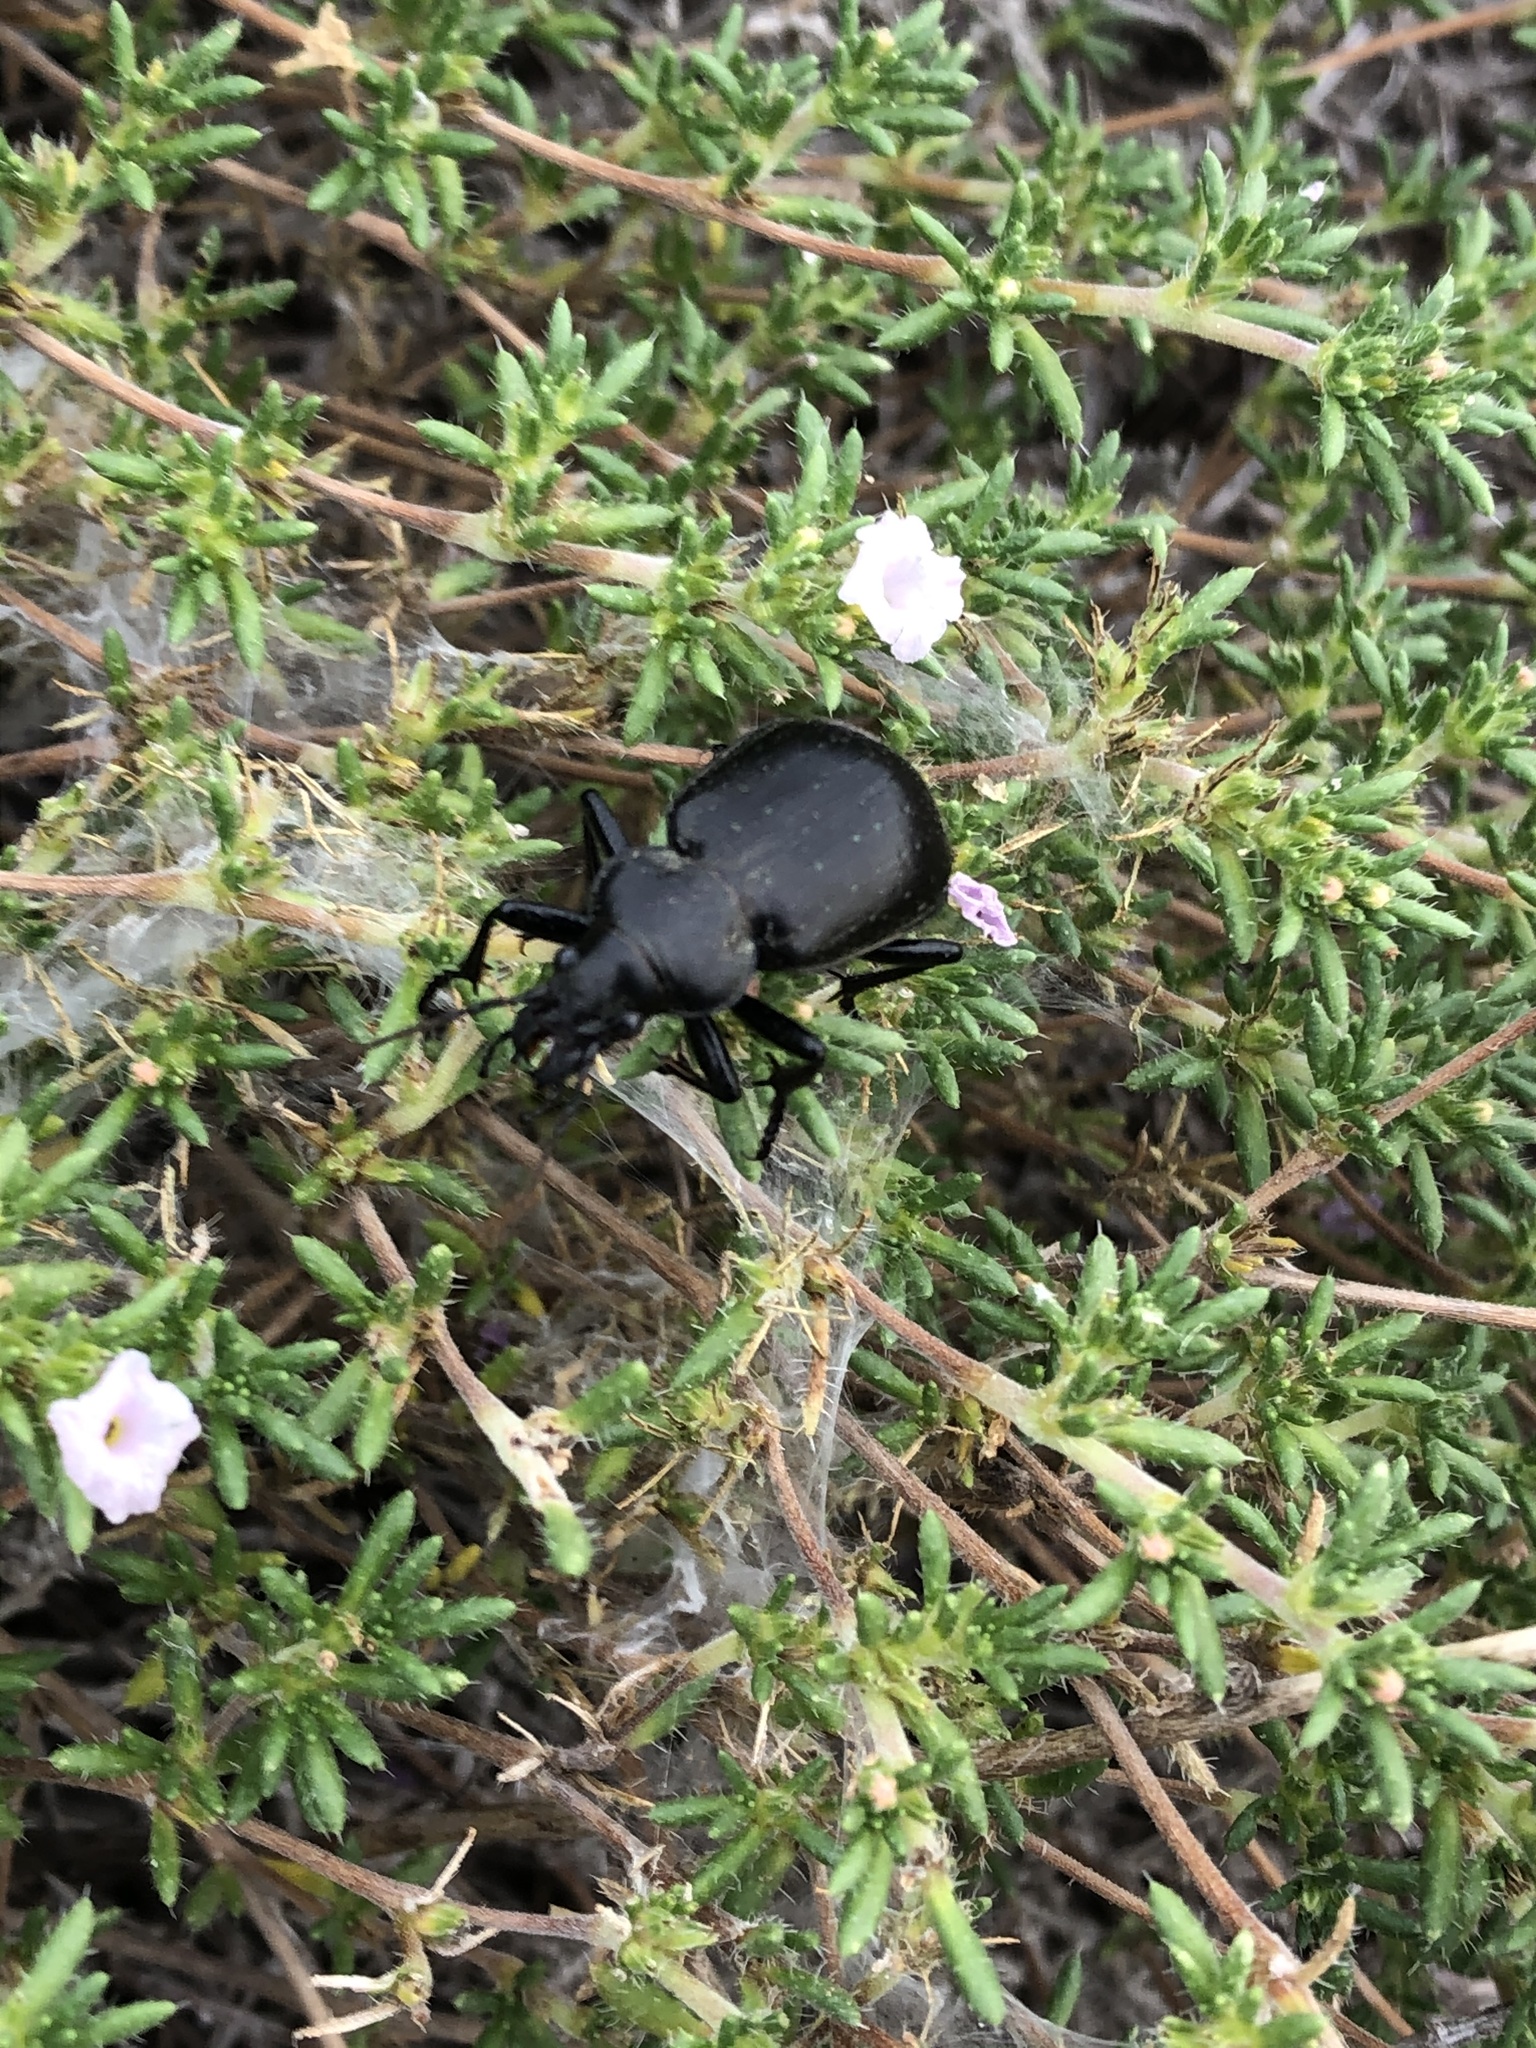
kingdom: Animalia
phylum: Arthropoda
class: Insecta
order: Coleoptera
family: Carabidae
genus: Calosoma
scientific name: Calosoma morrisonii
